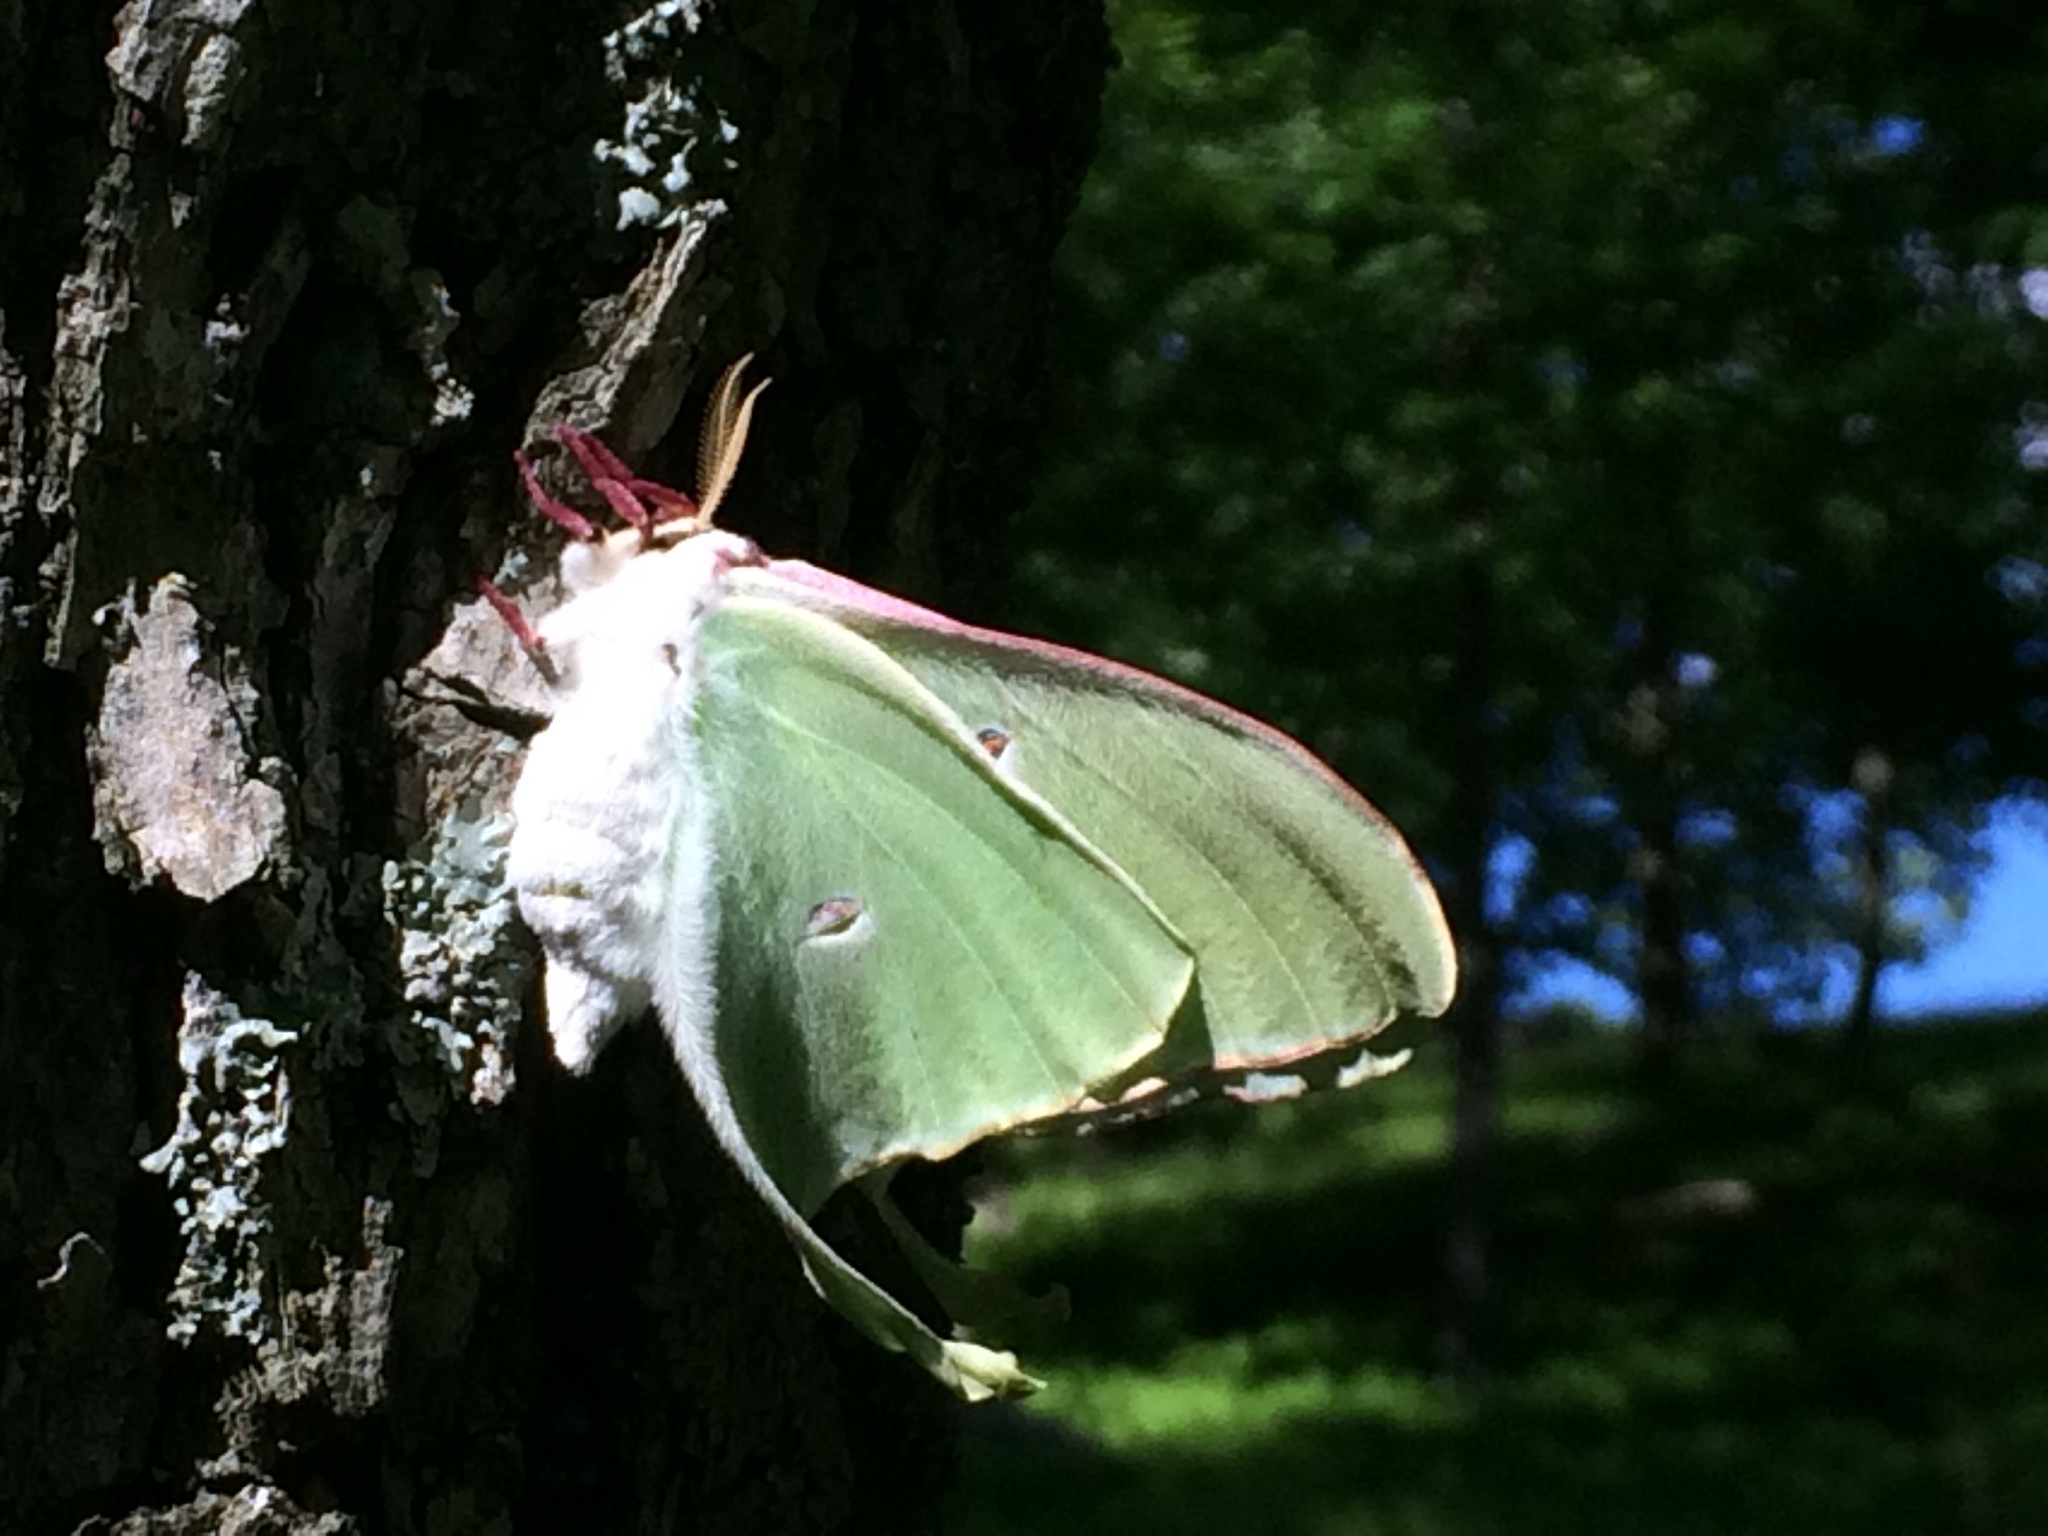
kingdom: Animalia
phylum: Arthropoda
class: Insecta
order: Lepidoptera
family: Saturniidae
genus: Actias
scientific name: Actias luna
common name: Luna moth
